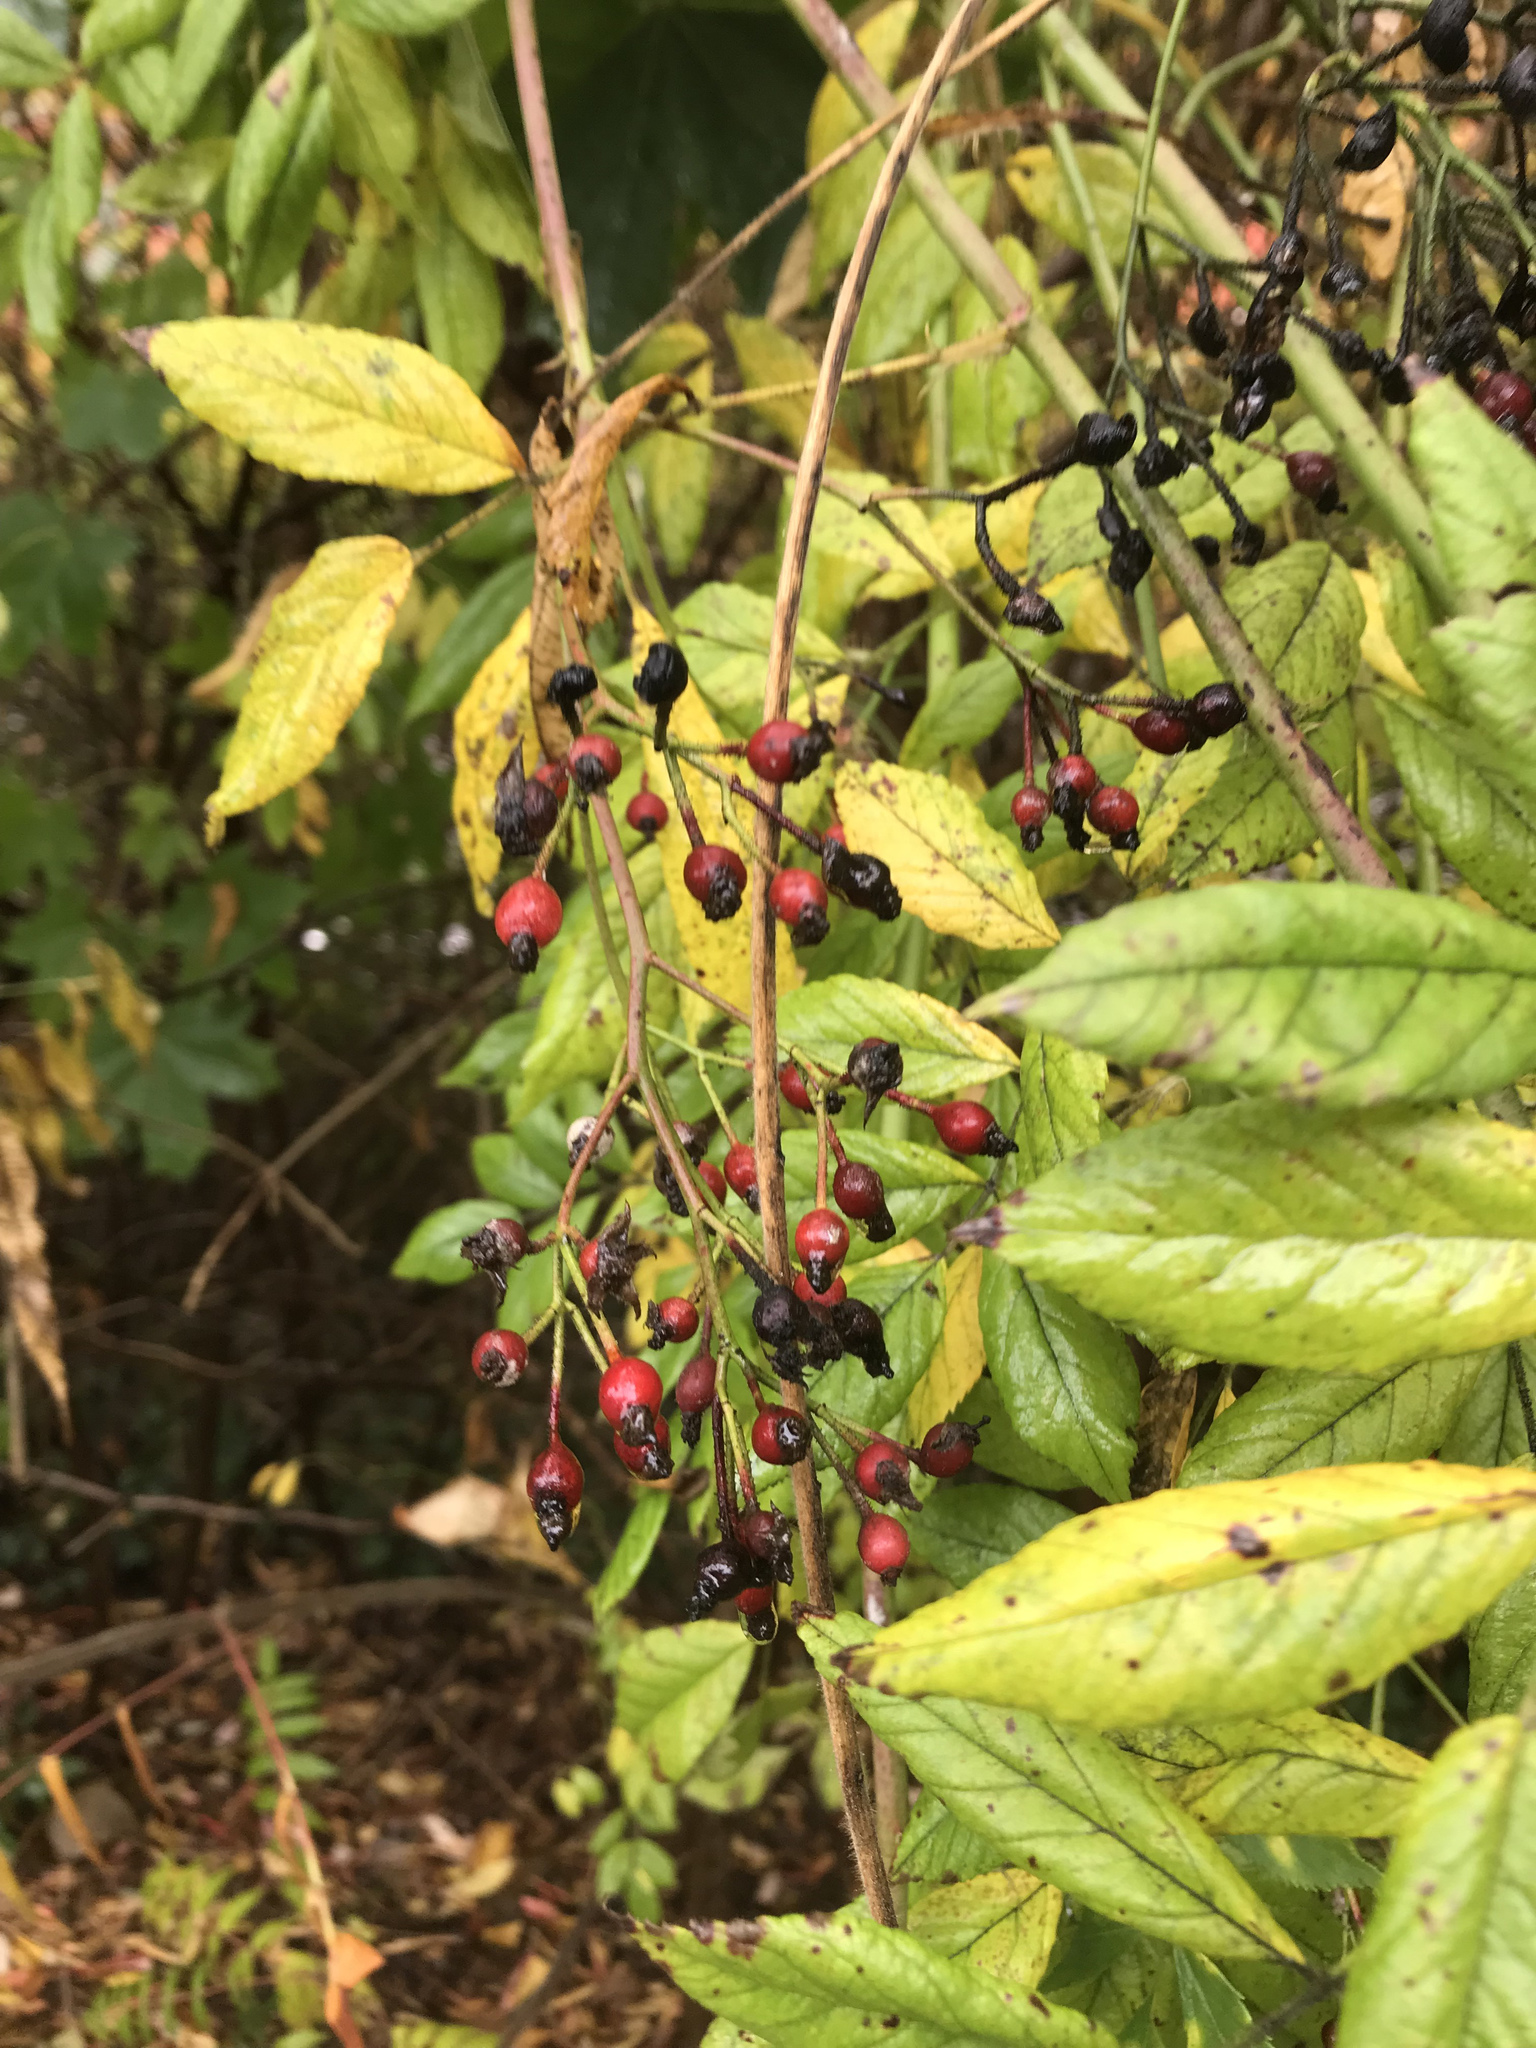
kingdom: Plantae
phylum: Tracheophyta
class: Magnoliopsida
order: Rosales
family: Rosaceae
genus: Rosa
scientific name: Rosa multiflora
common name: Multiflora rose
